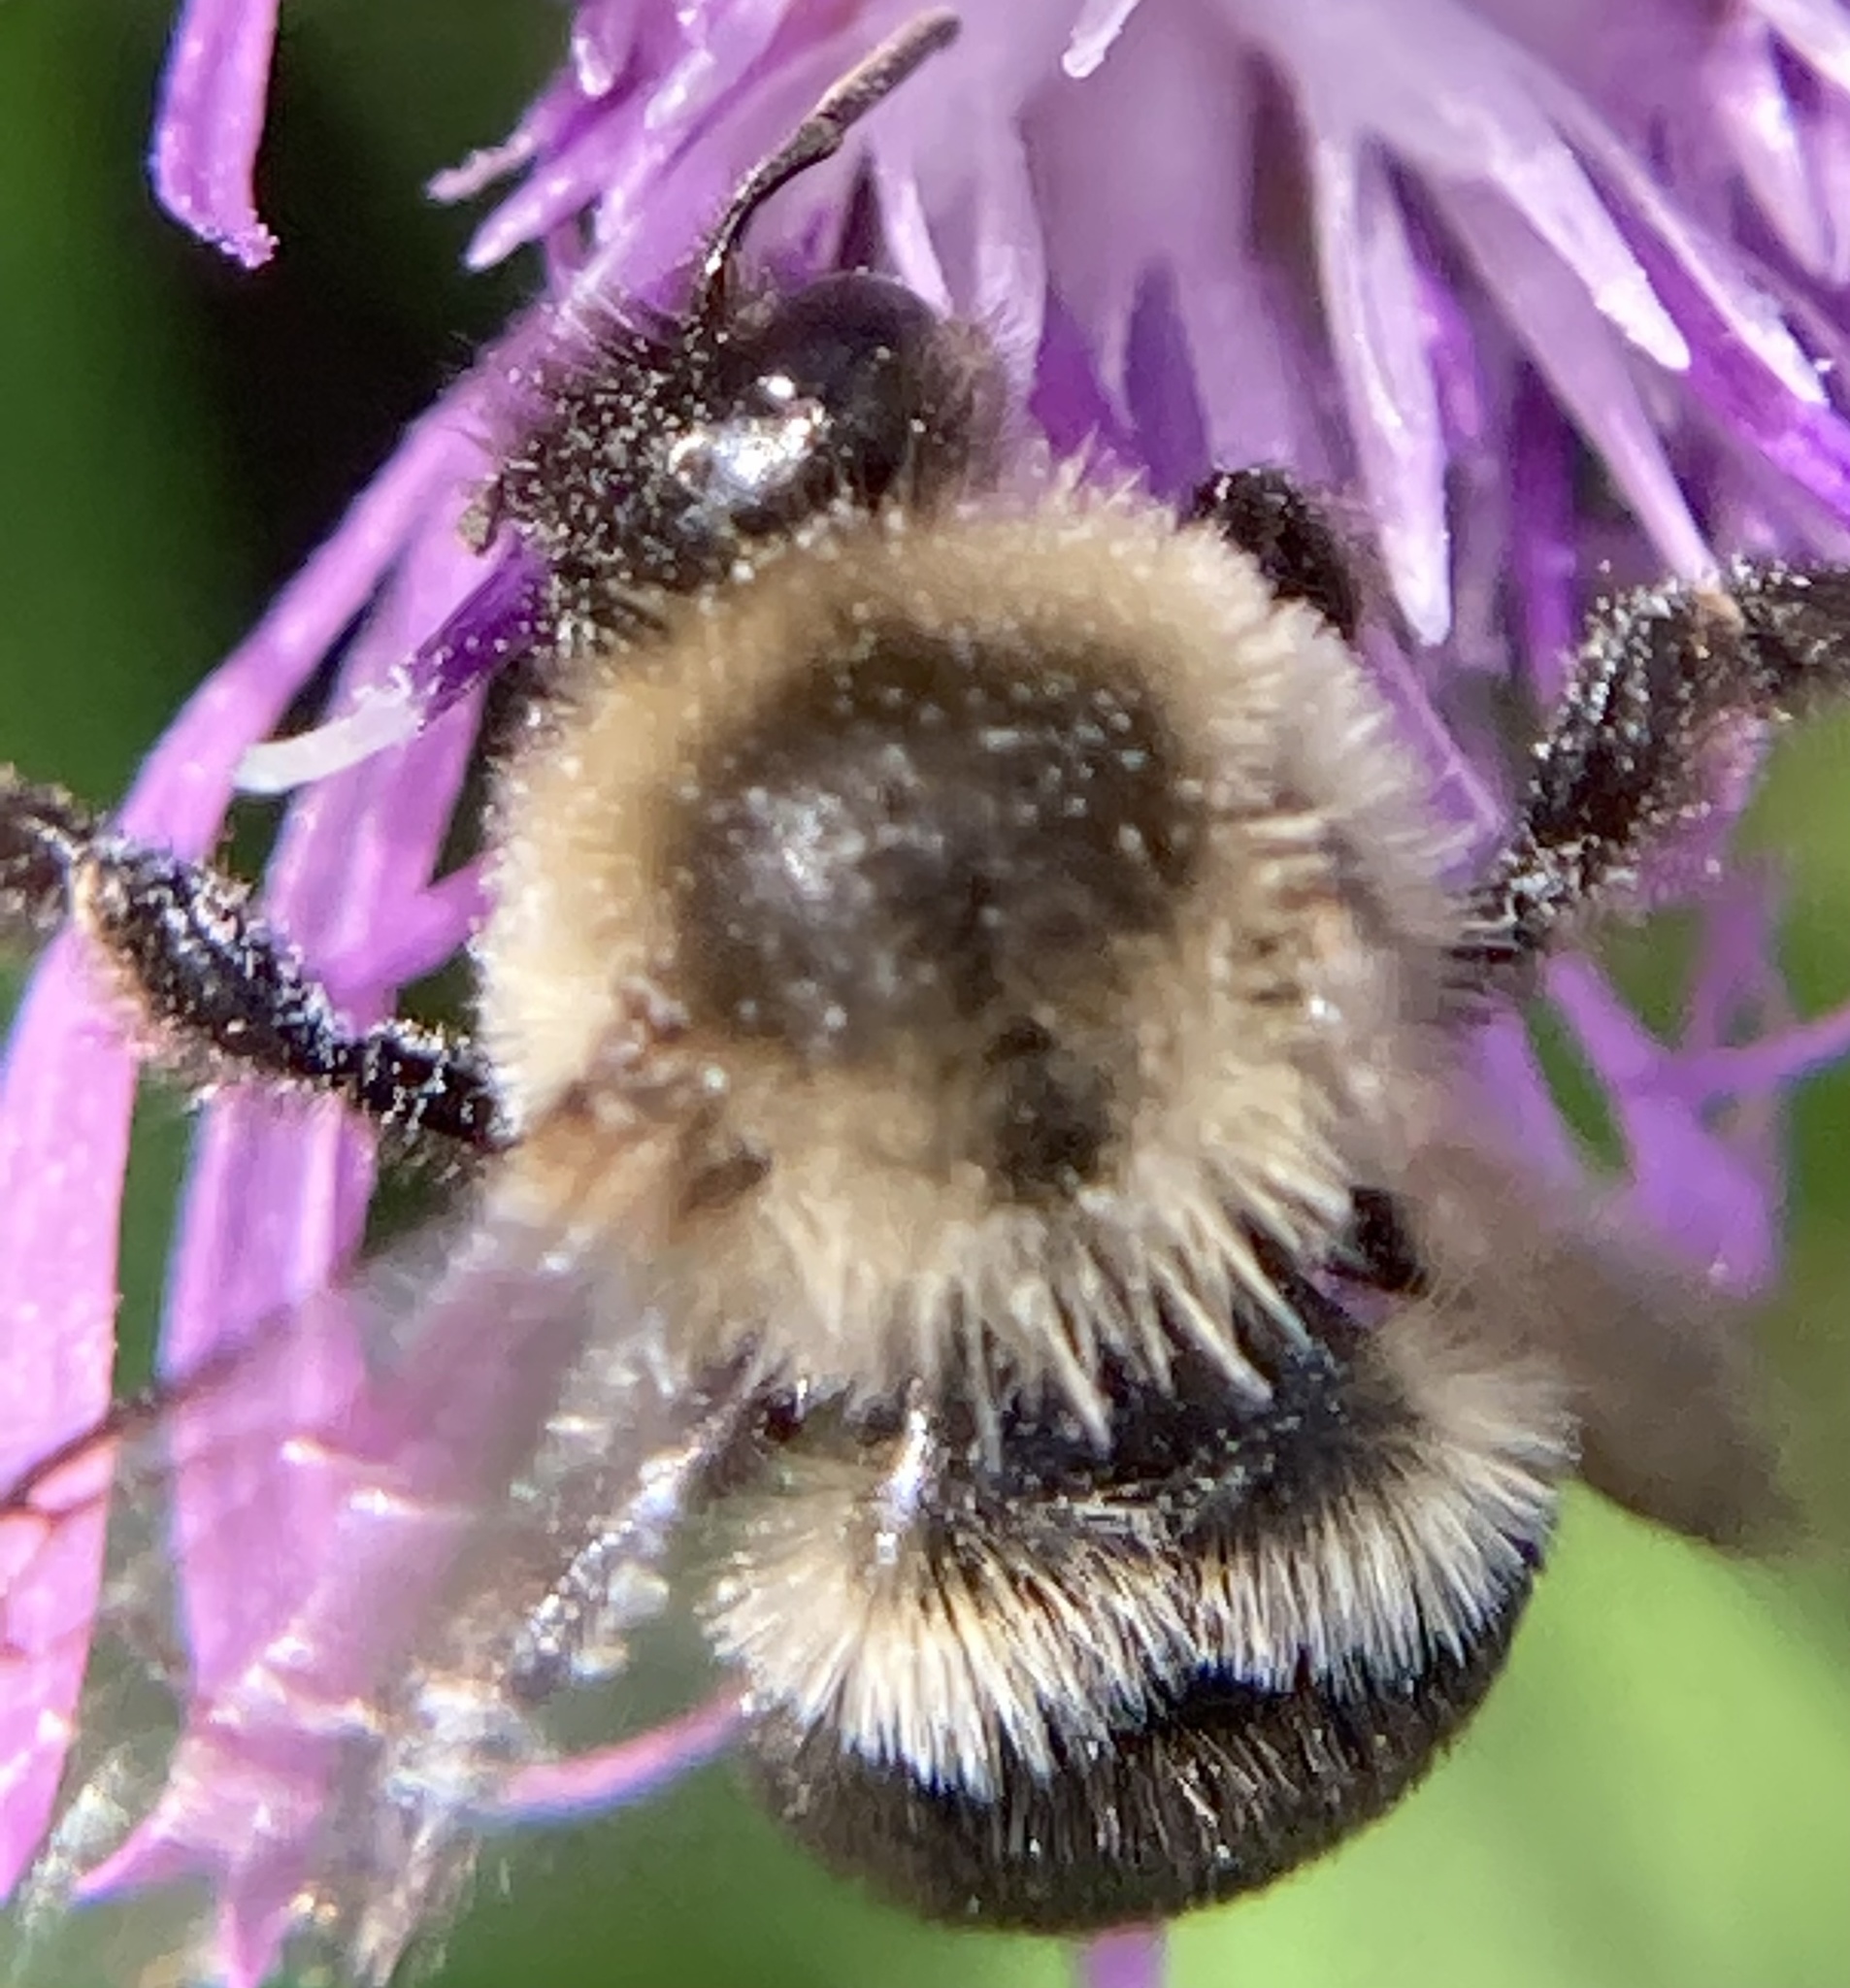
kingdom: Animalia
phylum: Arthropoda
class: Insecta
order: Hymenoptera
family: Apidae
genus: Bombus
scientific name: Bombus impatiens
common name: Common eastern bumble bee
